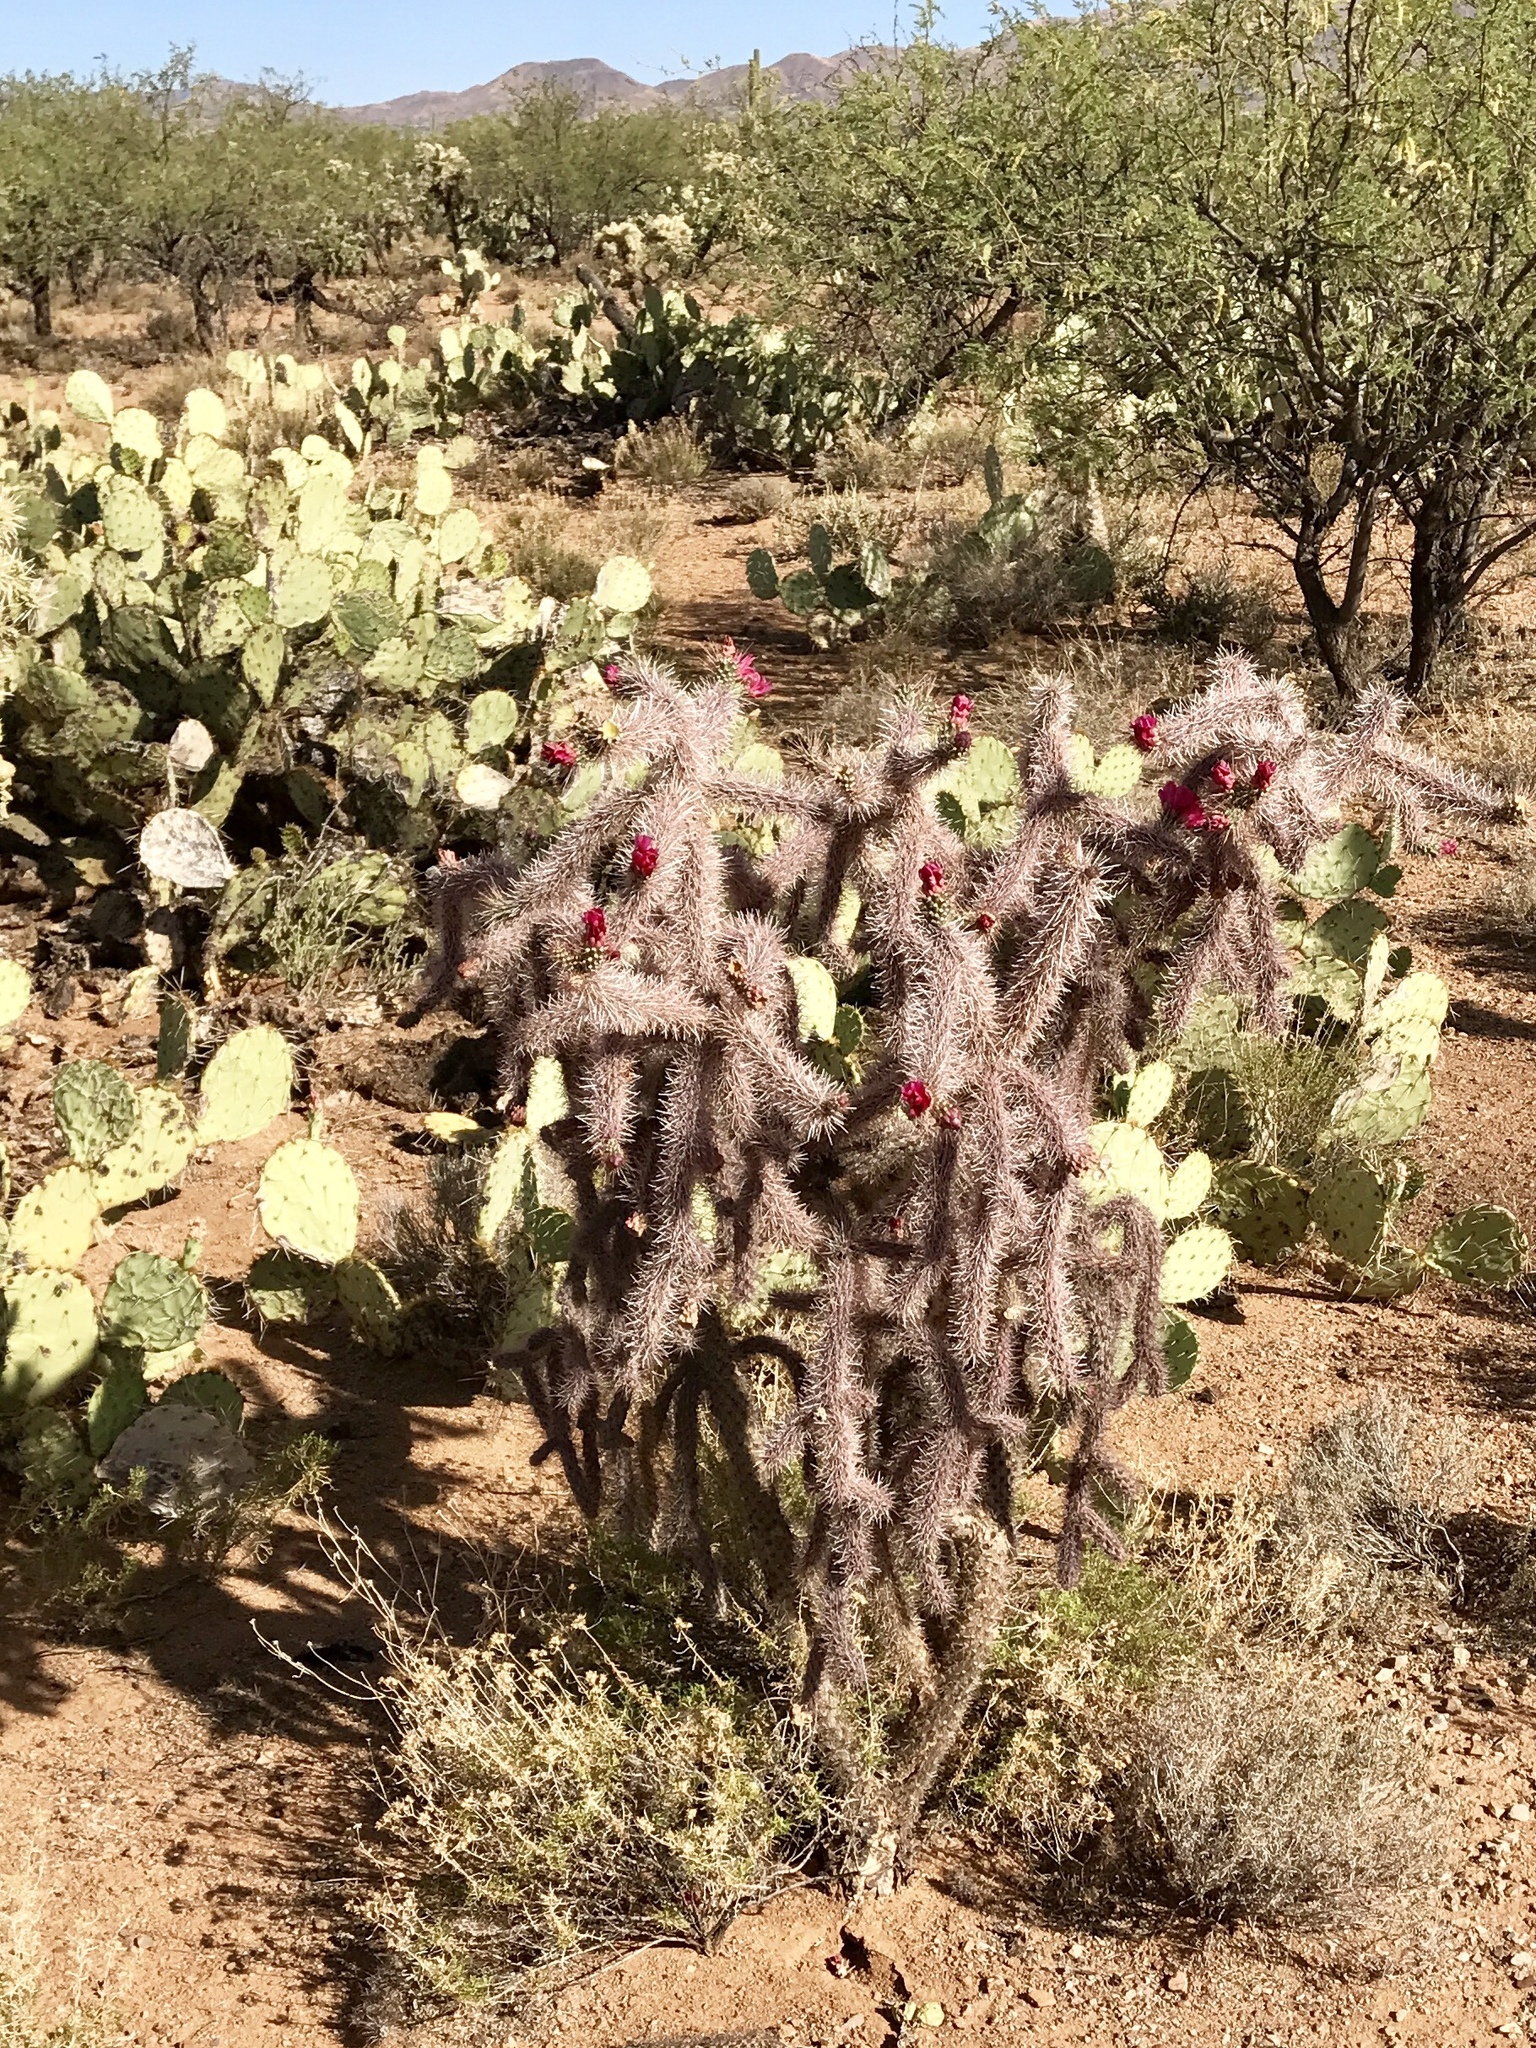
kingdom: Plantae
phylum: Tracheophyta
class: Magnoliopsida
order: Caryophyllales
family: Cactaceae
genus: Cylindropuntia
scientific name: Cylindropuntia thurberi
